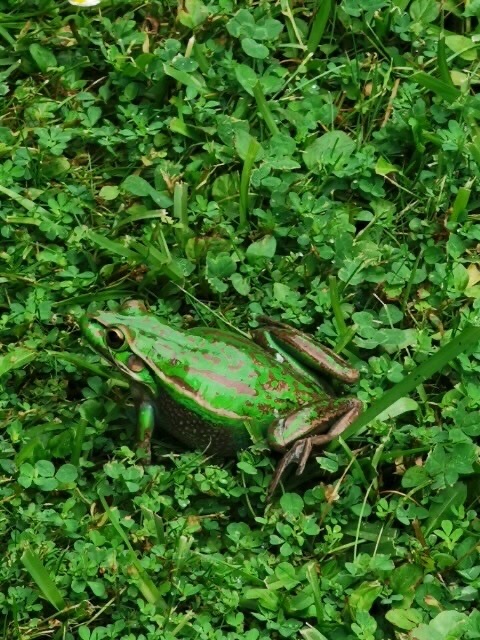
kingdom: Animalia
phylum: Chordata
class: Amphibia
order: Anura
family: Pelodryadidae
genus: Ranoidea
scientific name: Ranoidea aurea
